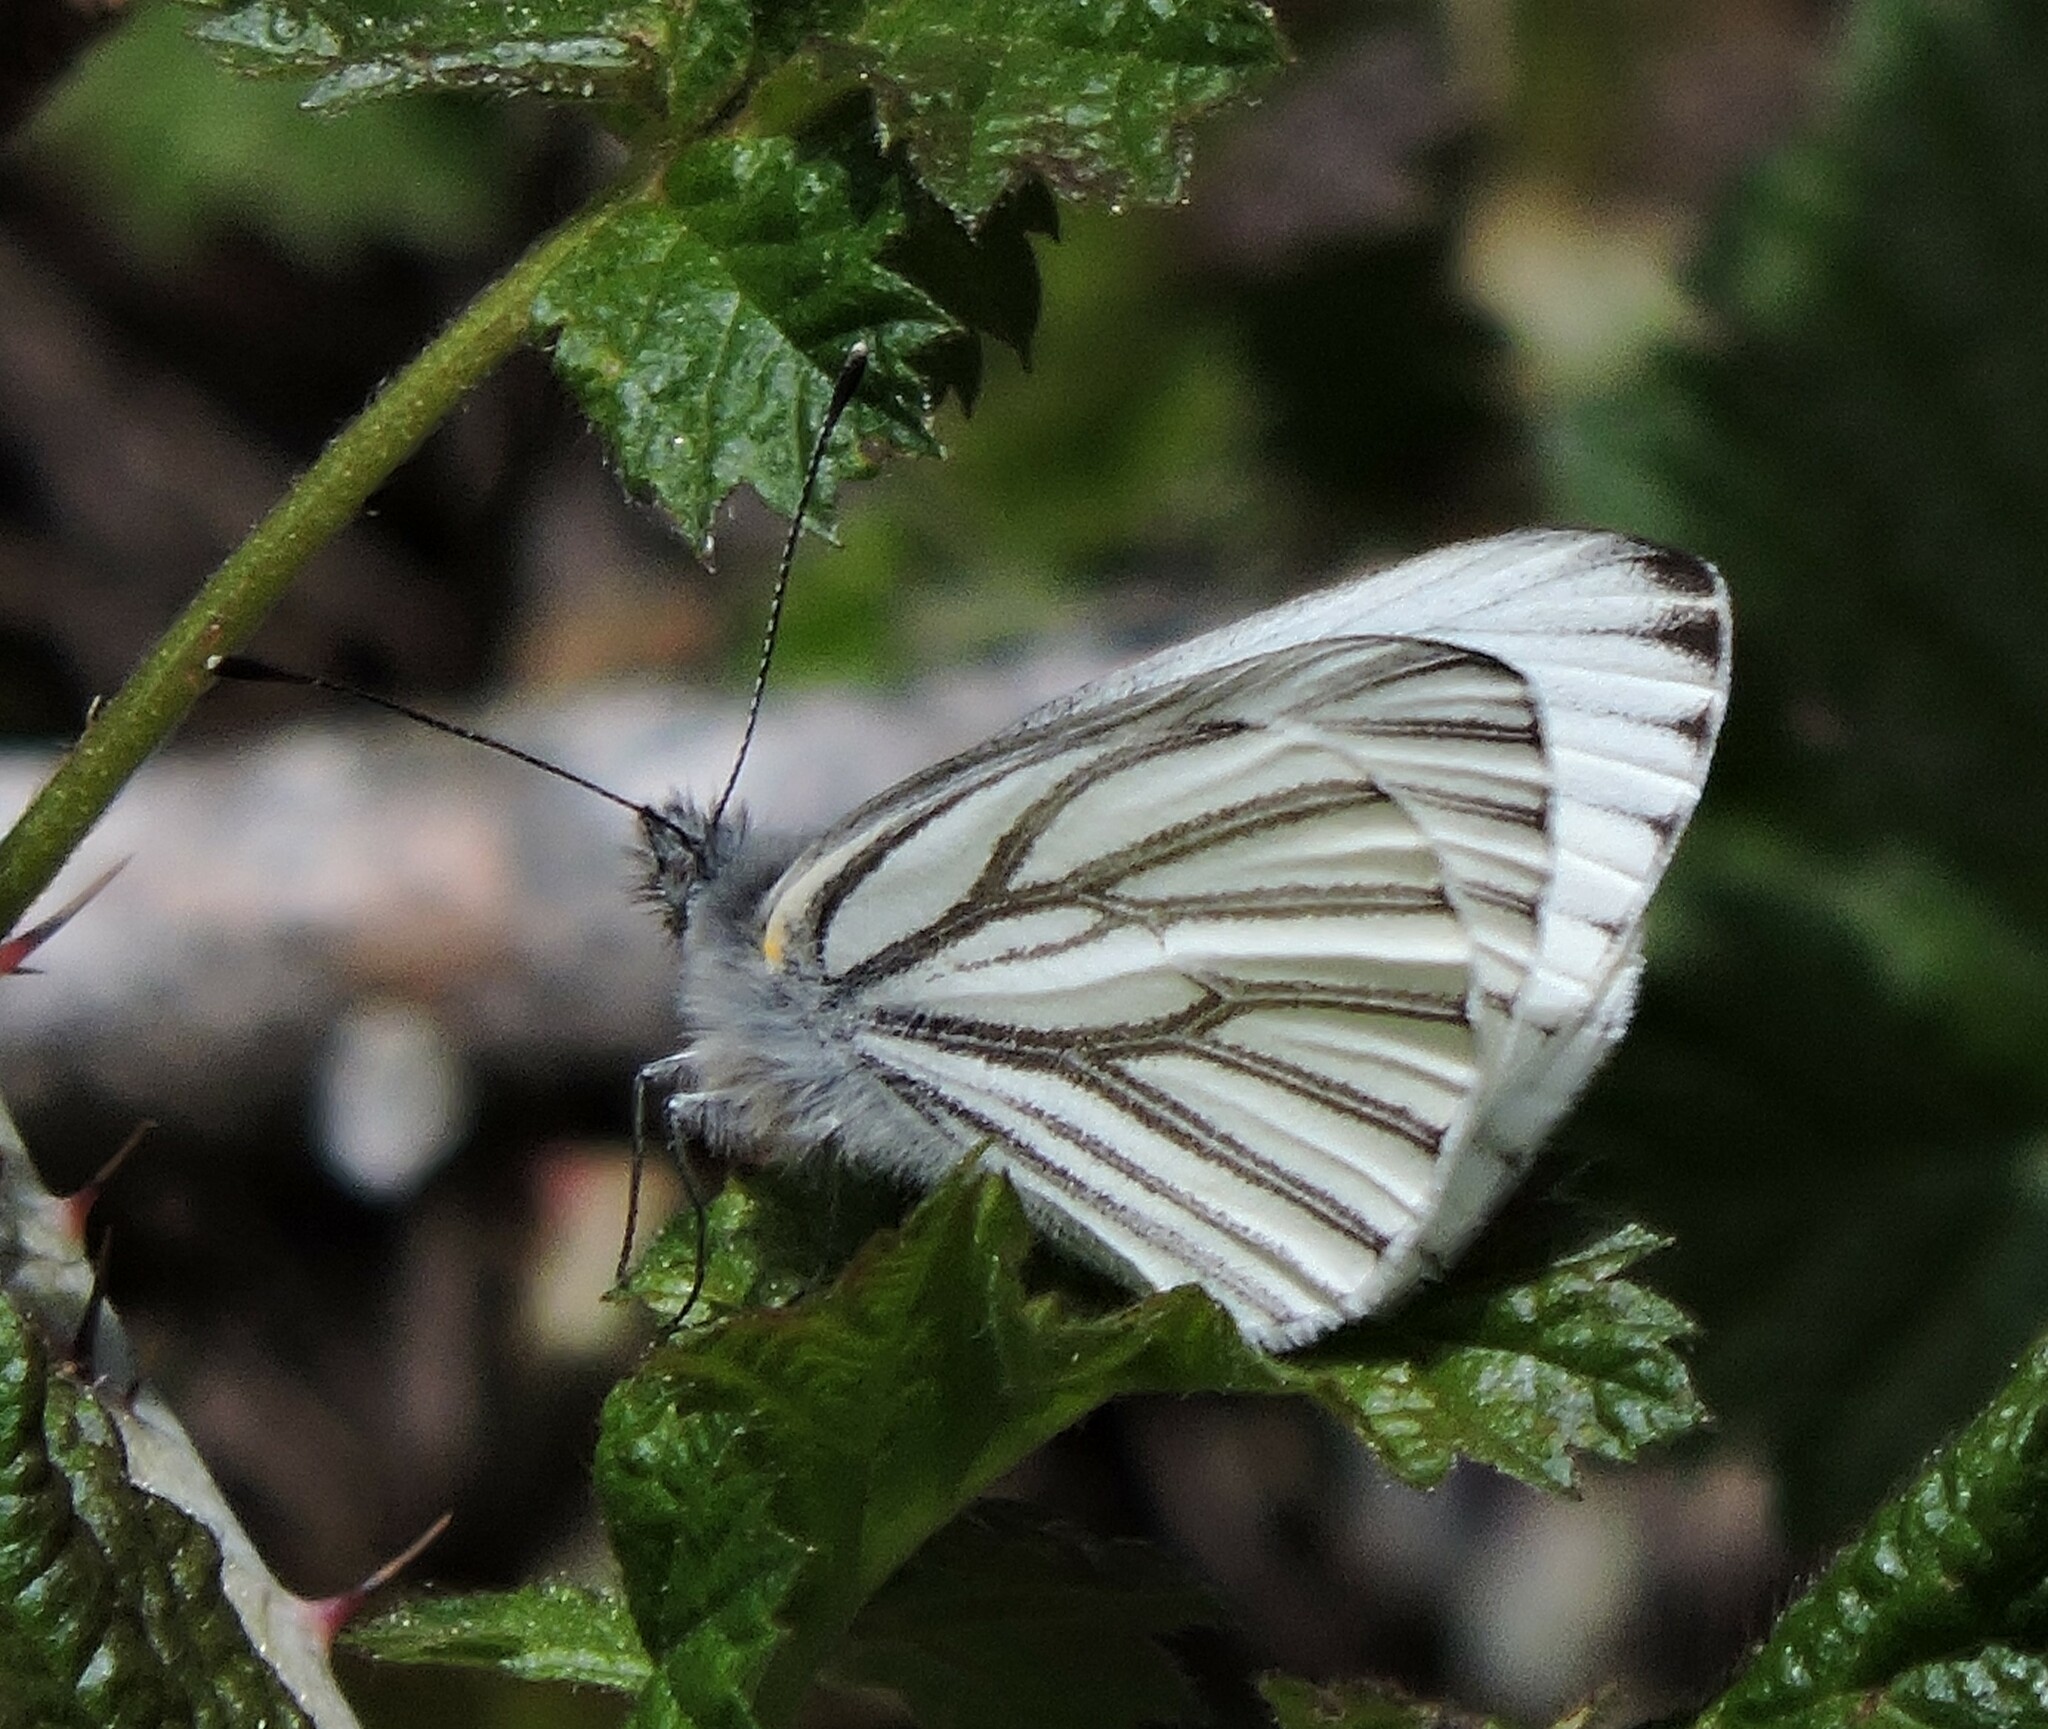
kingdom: Animalia
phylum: Arthropoda
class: Insecta
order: Lepidoptera
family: Pieridae
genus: Pieris
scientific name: Pieris marginalis
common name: Margined white
